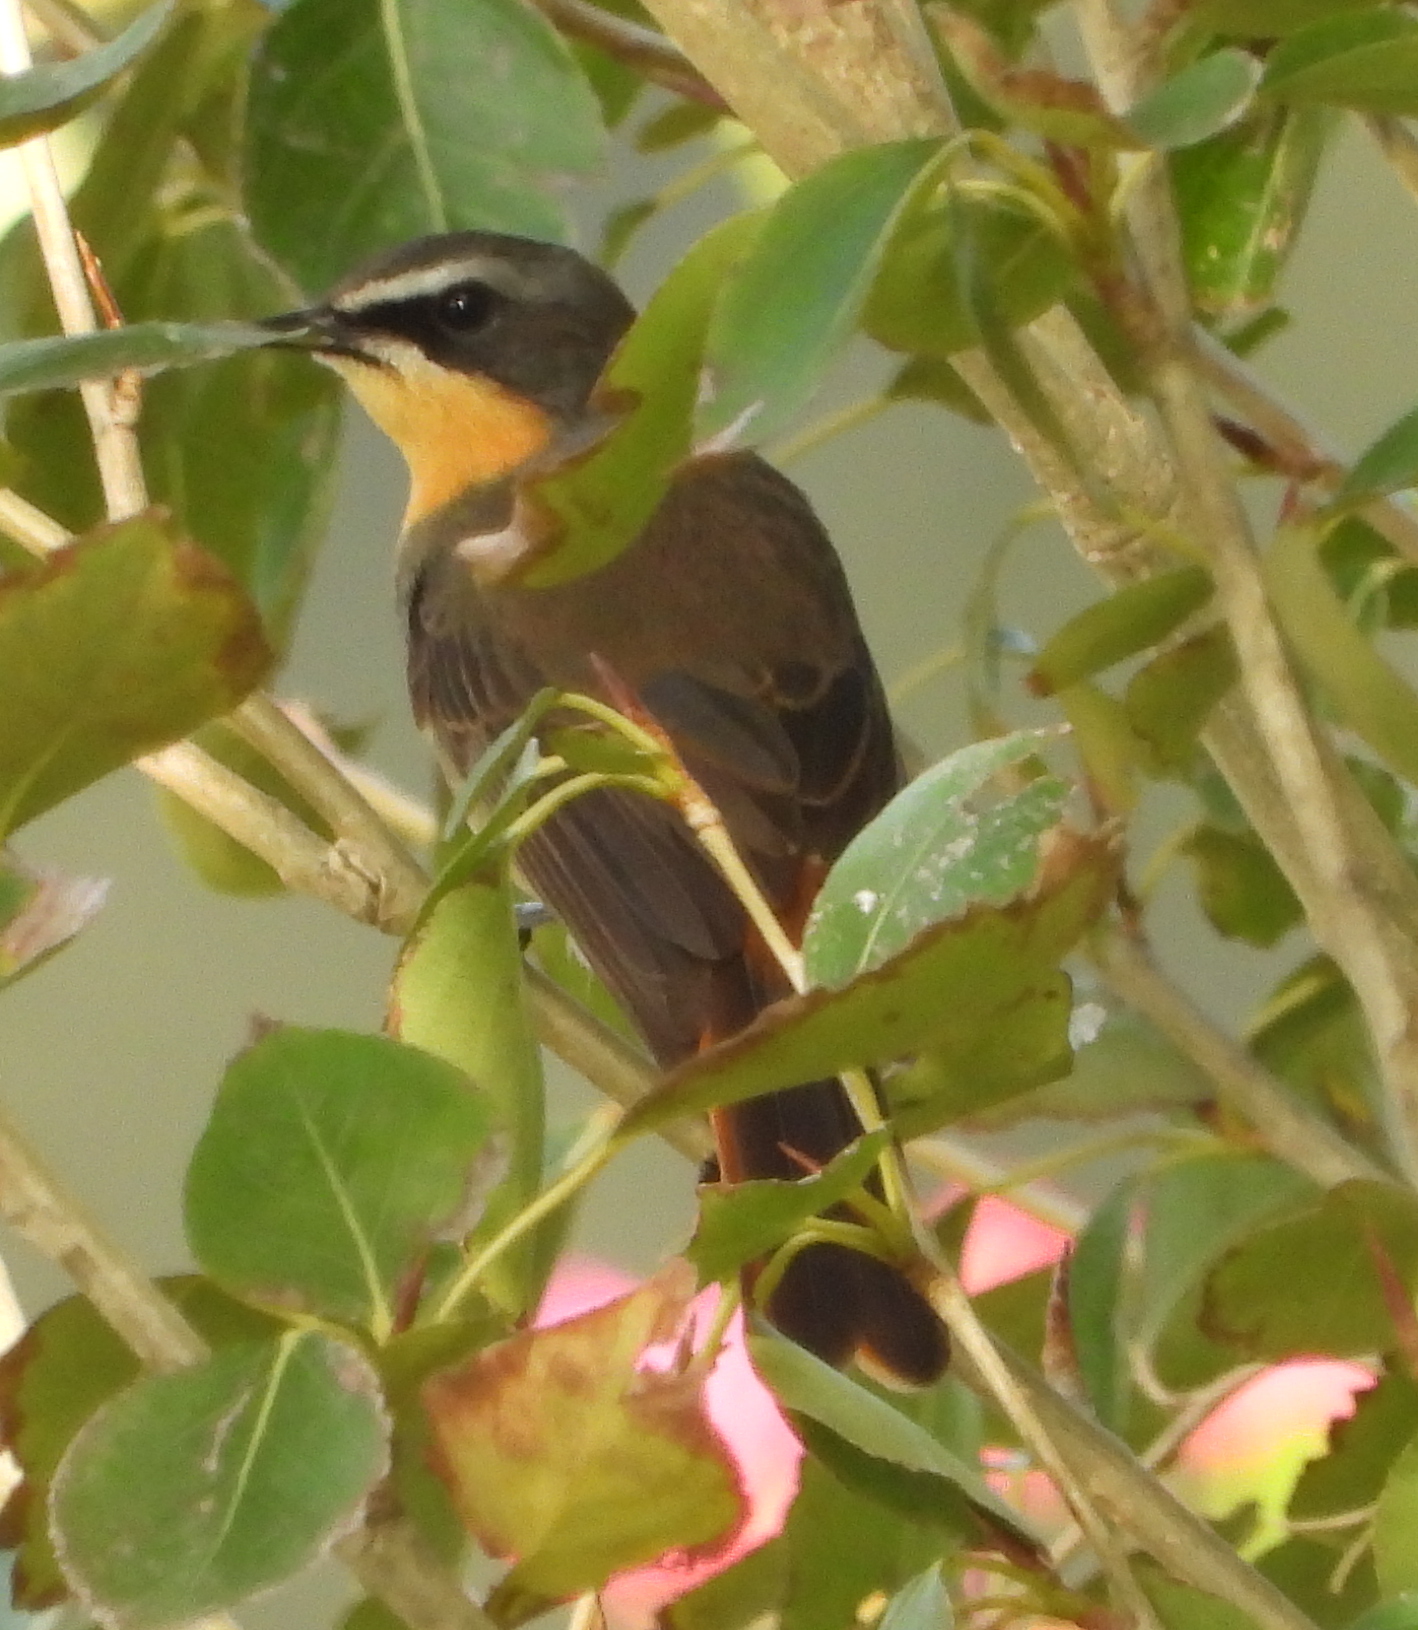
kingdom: Animalia
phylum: Chordata
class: Aves
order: Passeriformes
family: Muscicapidae
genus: Cossypha
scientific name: Cossypha caffra
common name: Cape robin-chat
